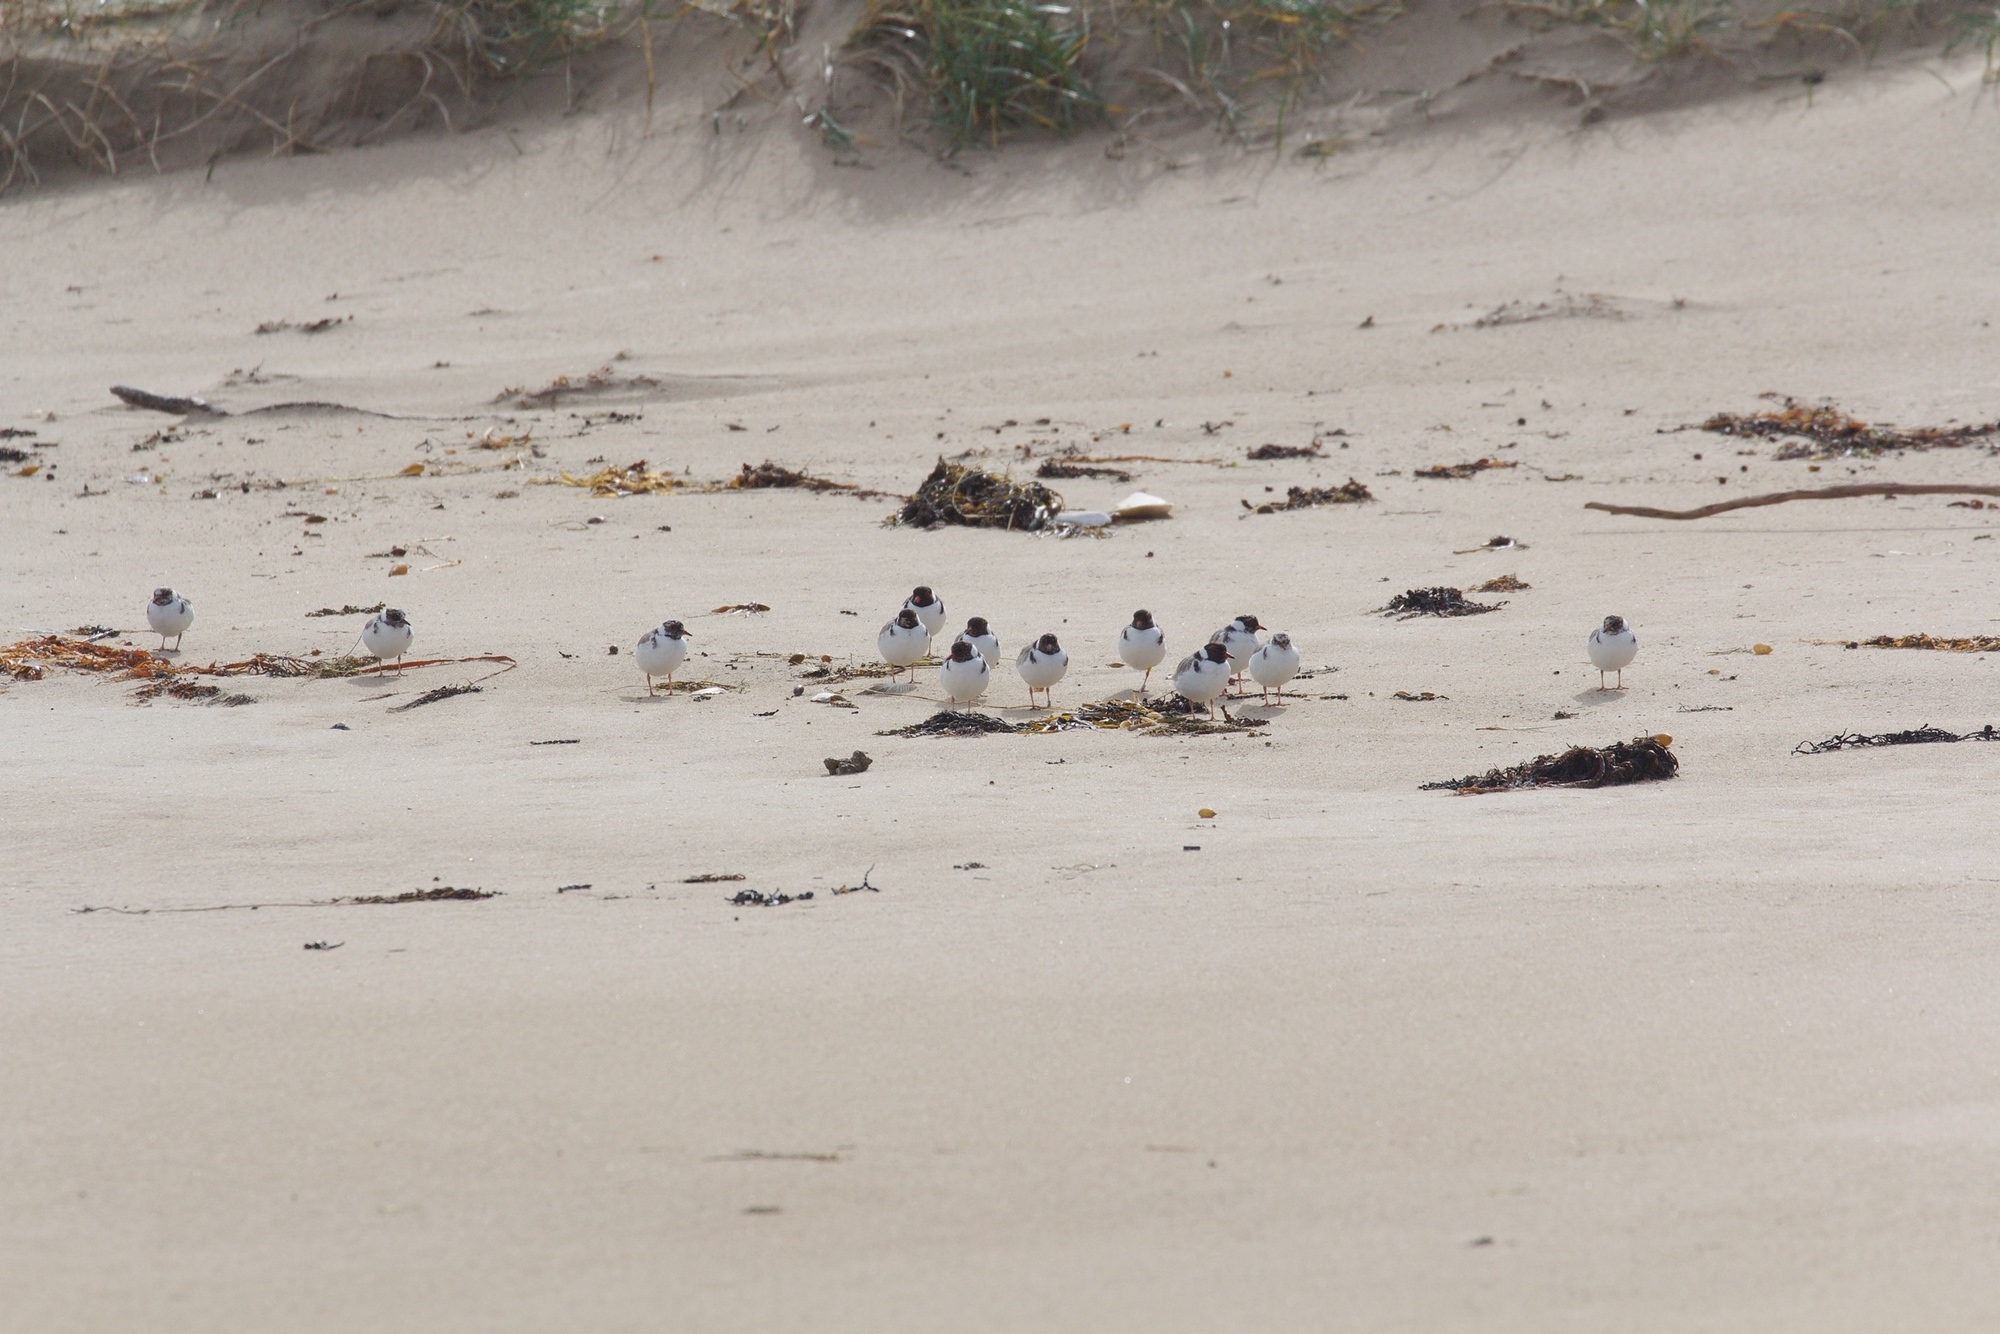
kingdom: Animalia
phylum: Chordata
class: Aves
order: Charadriiformes
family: Charadriidae
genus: Thinornis
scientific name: Thinornis cucullatus
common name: Hooded dotterel
